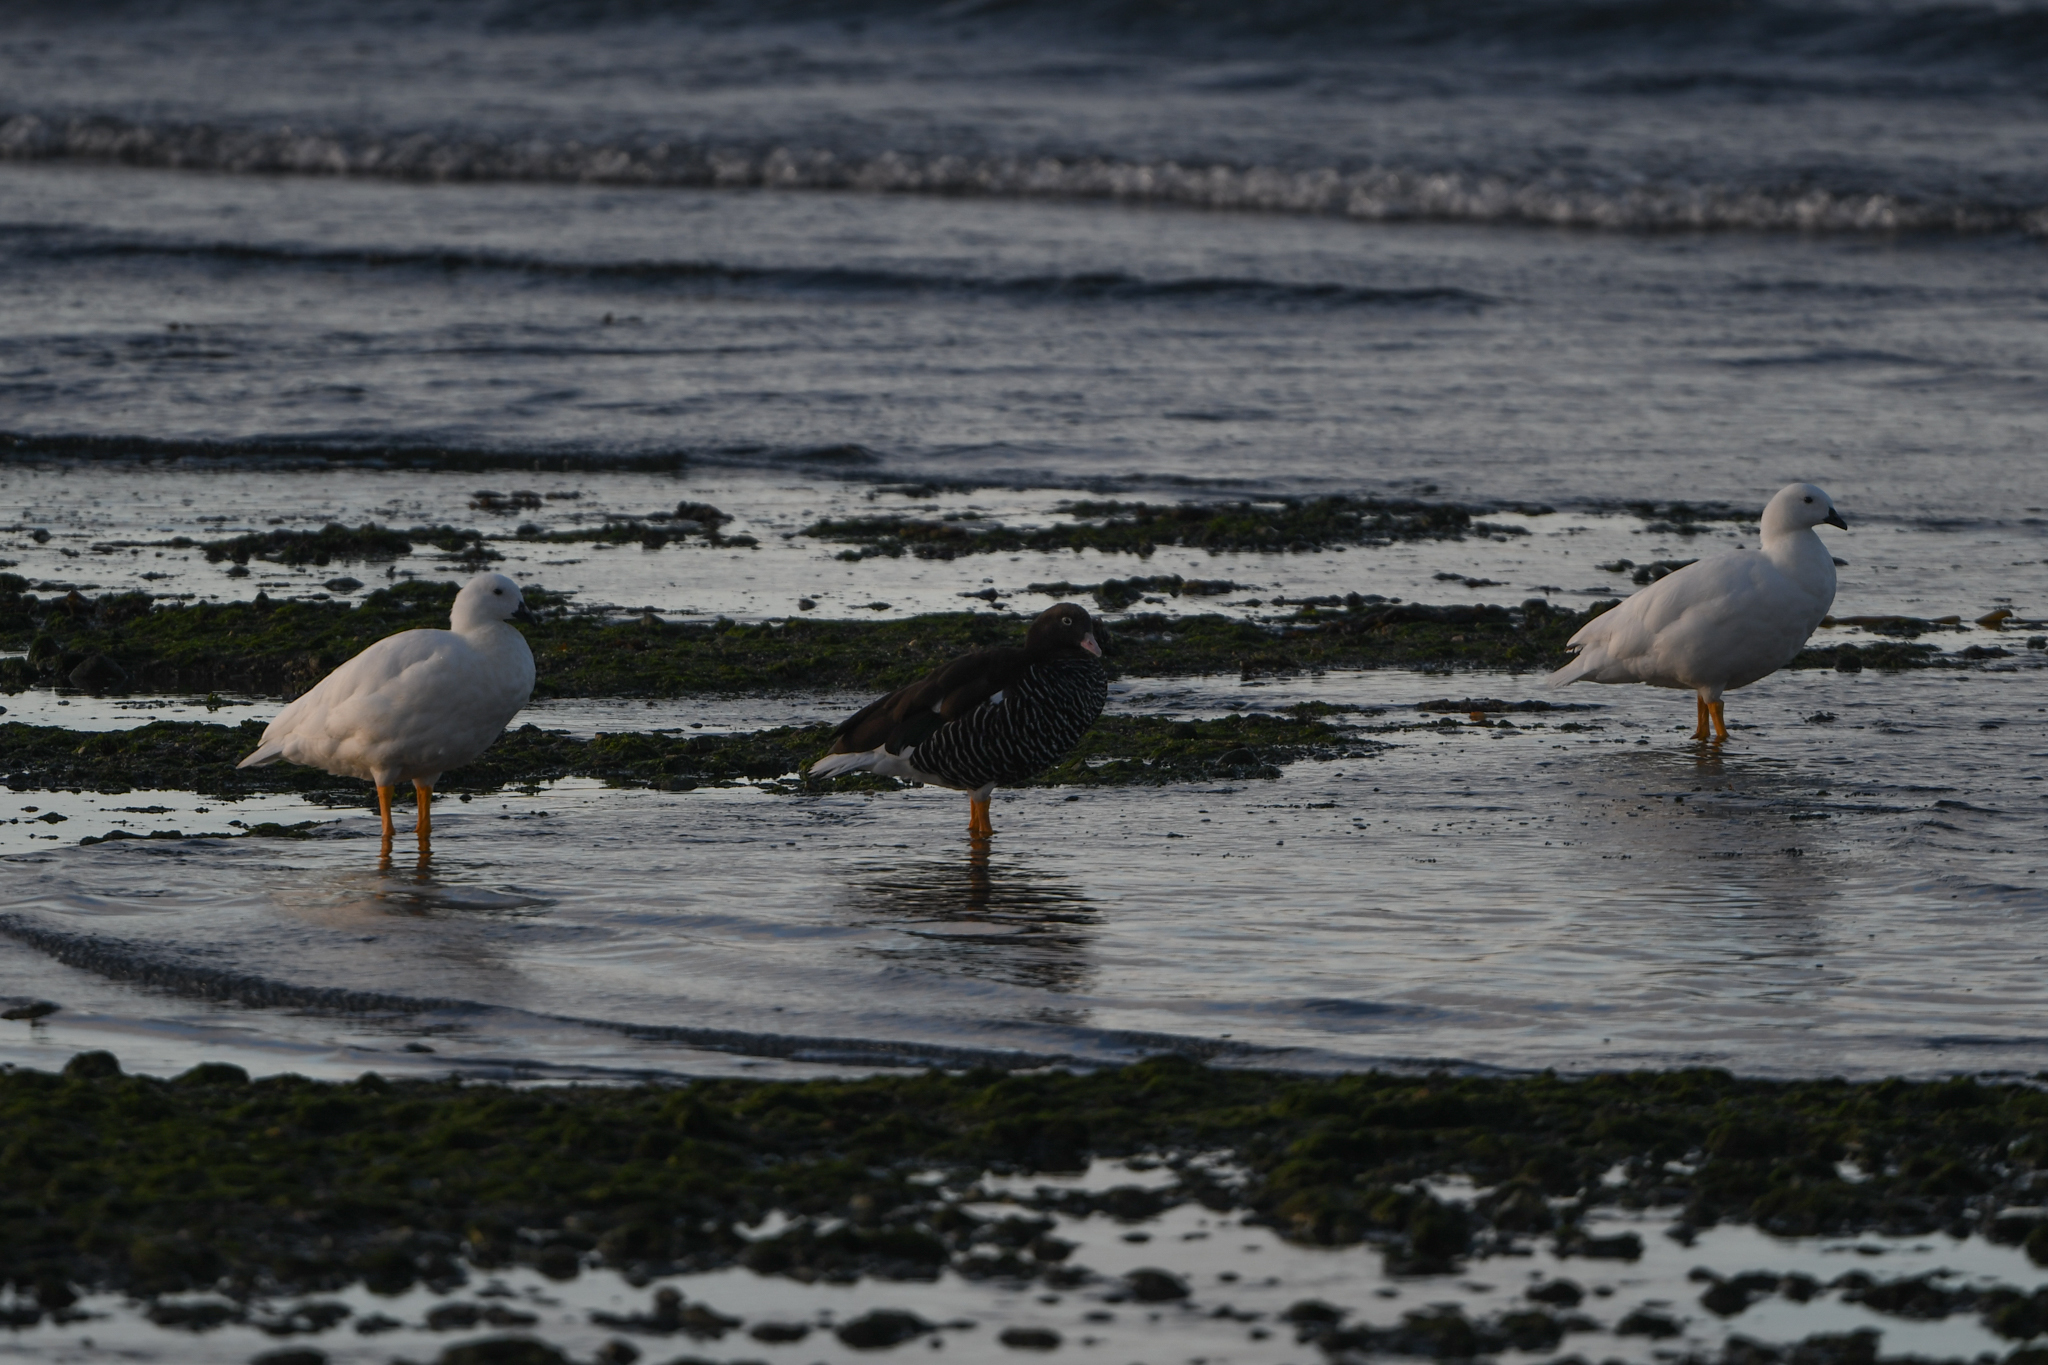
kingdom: Animalia
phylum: Chordata
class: Aves
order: Anseriformes
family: Anatidae
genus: Chloephaga
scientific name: Chloephaga hybrida
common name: Kelp goose
